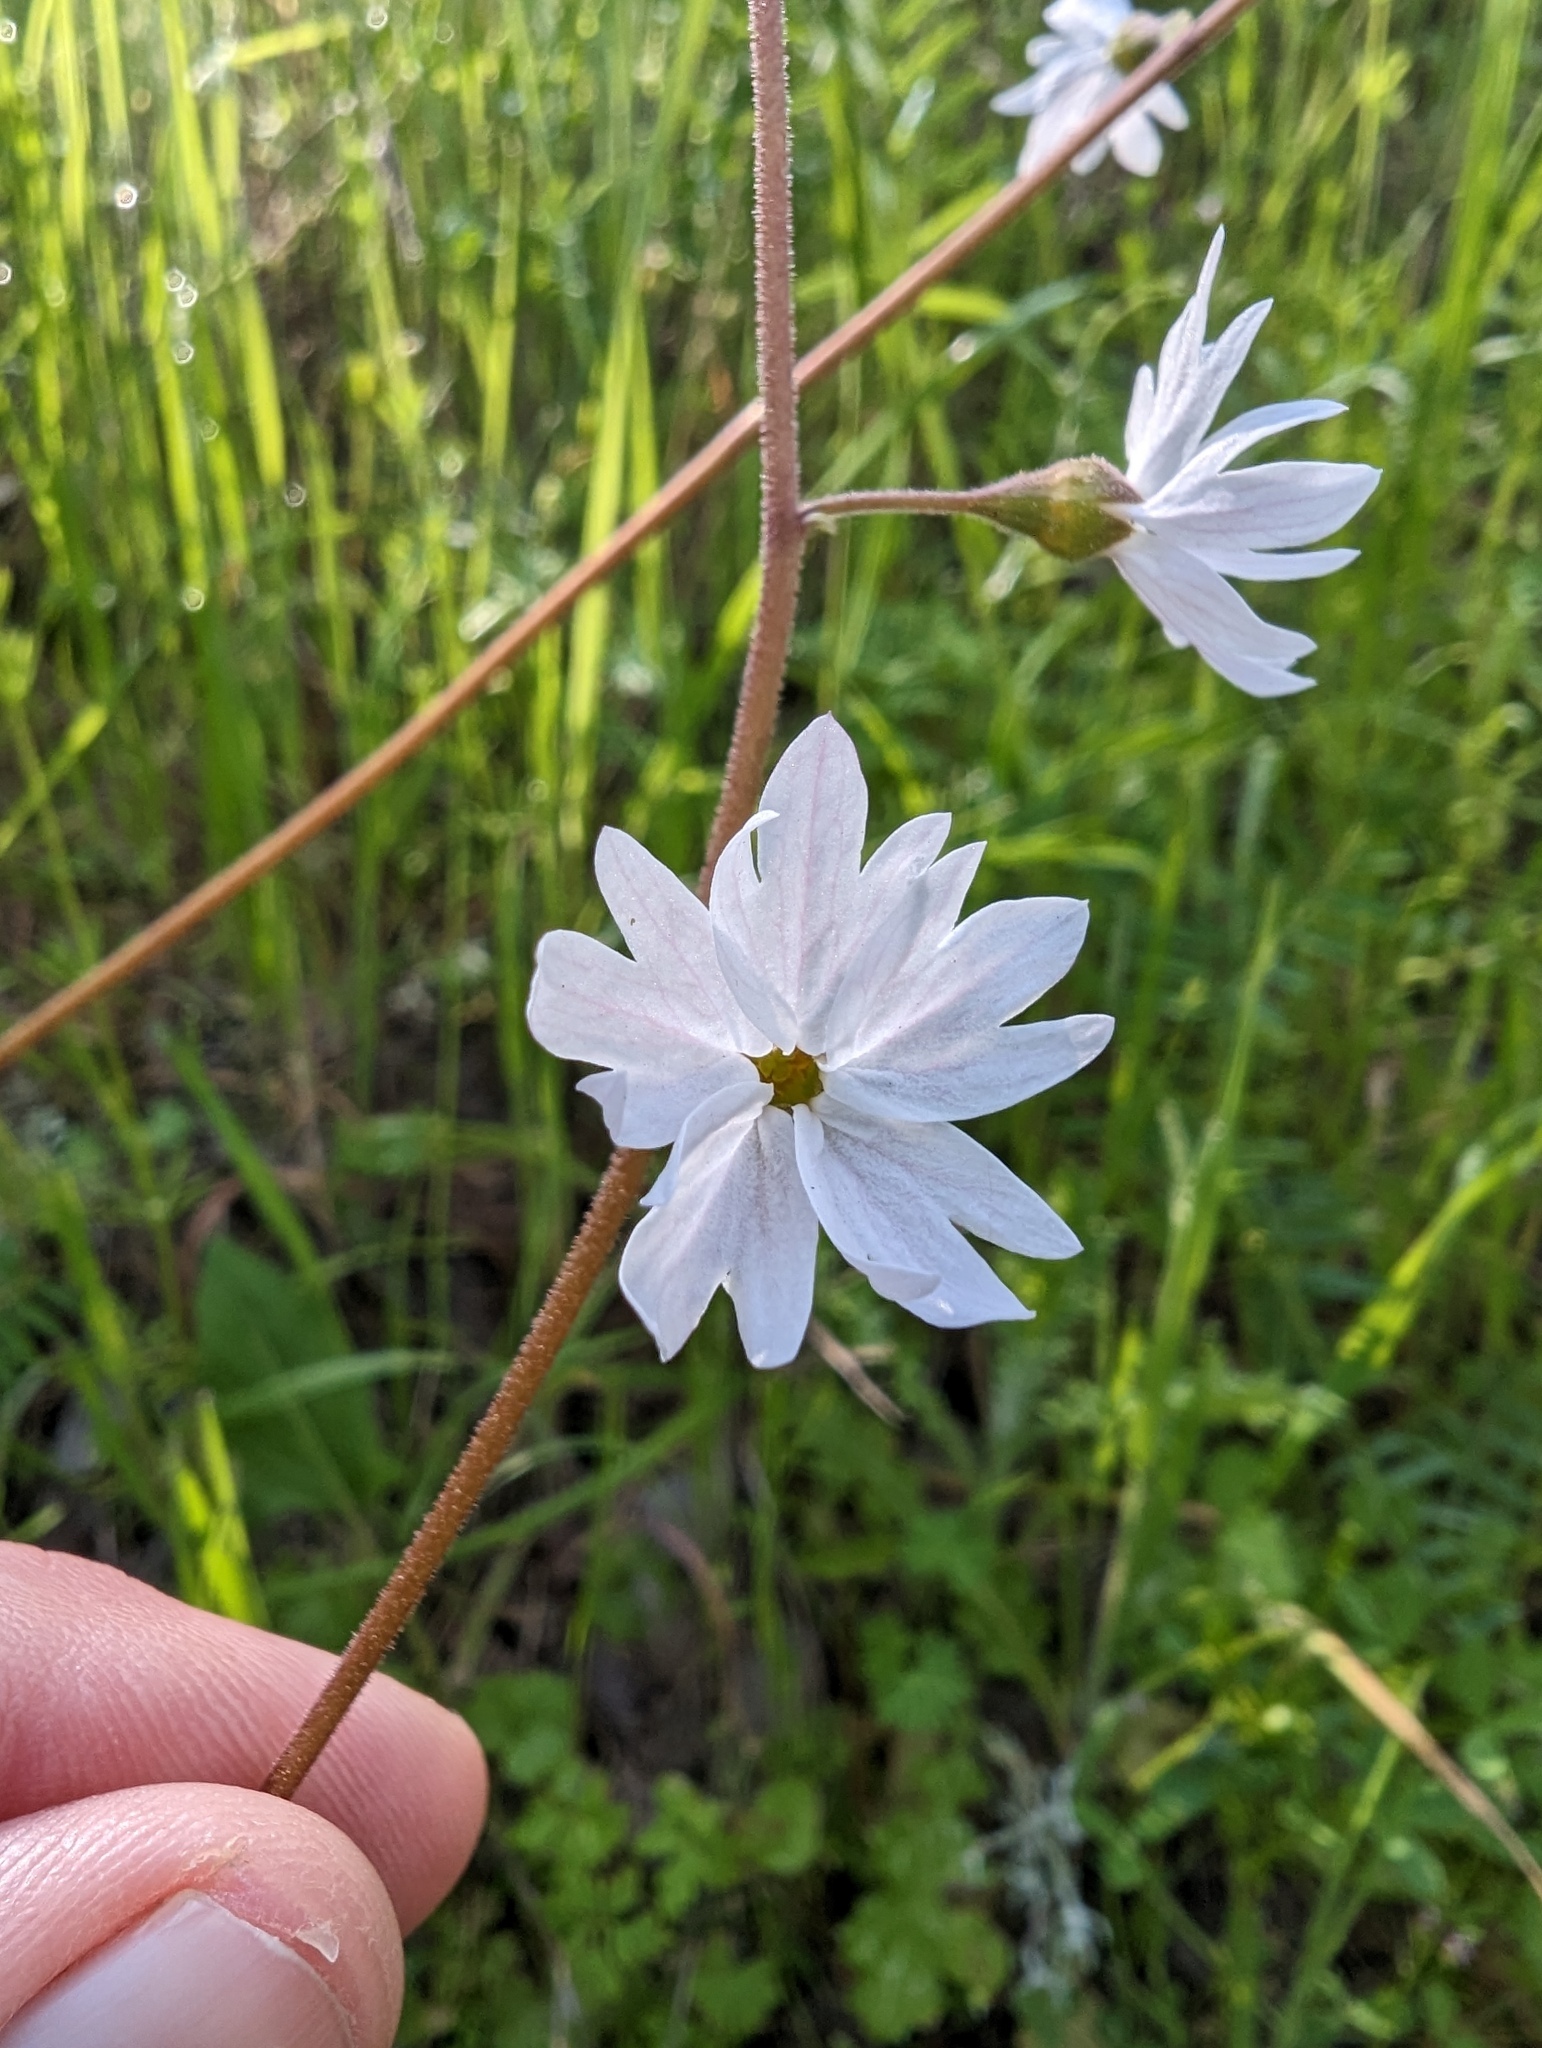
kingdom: Plantae
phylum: Tracheophyta
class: Magnoliopsida
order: Saxifragales
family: Saxifragaceae
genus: Lithophragma
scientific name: Lithophragma affine
